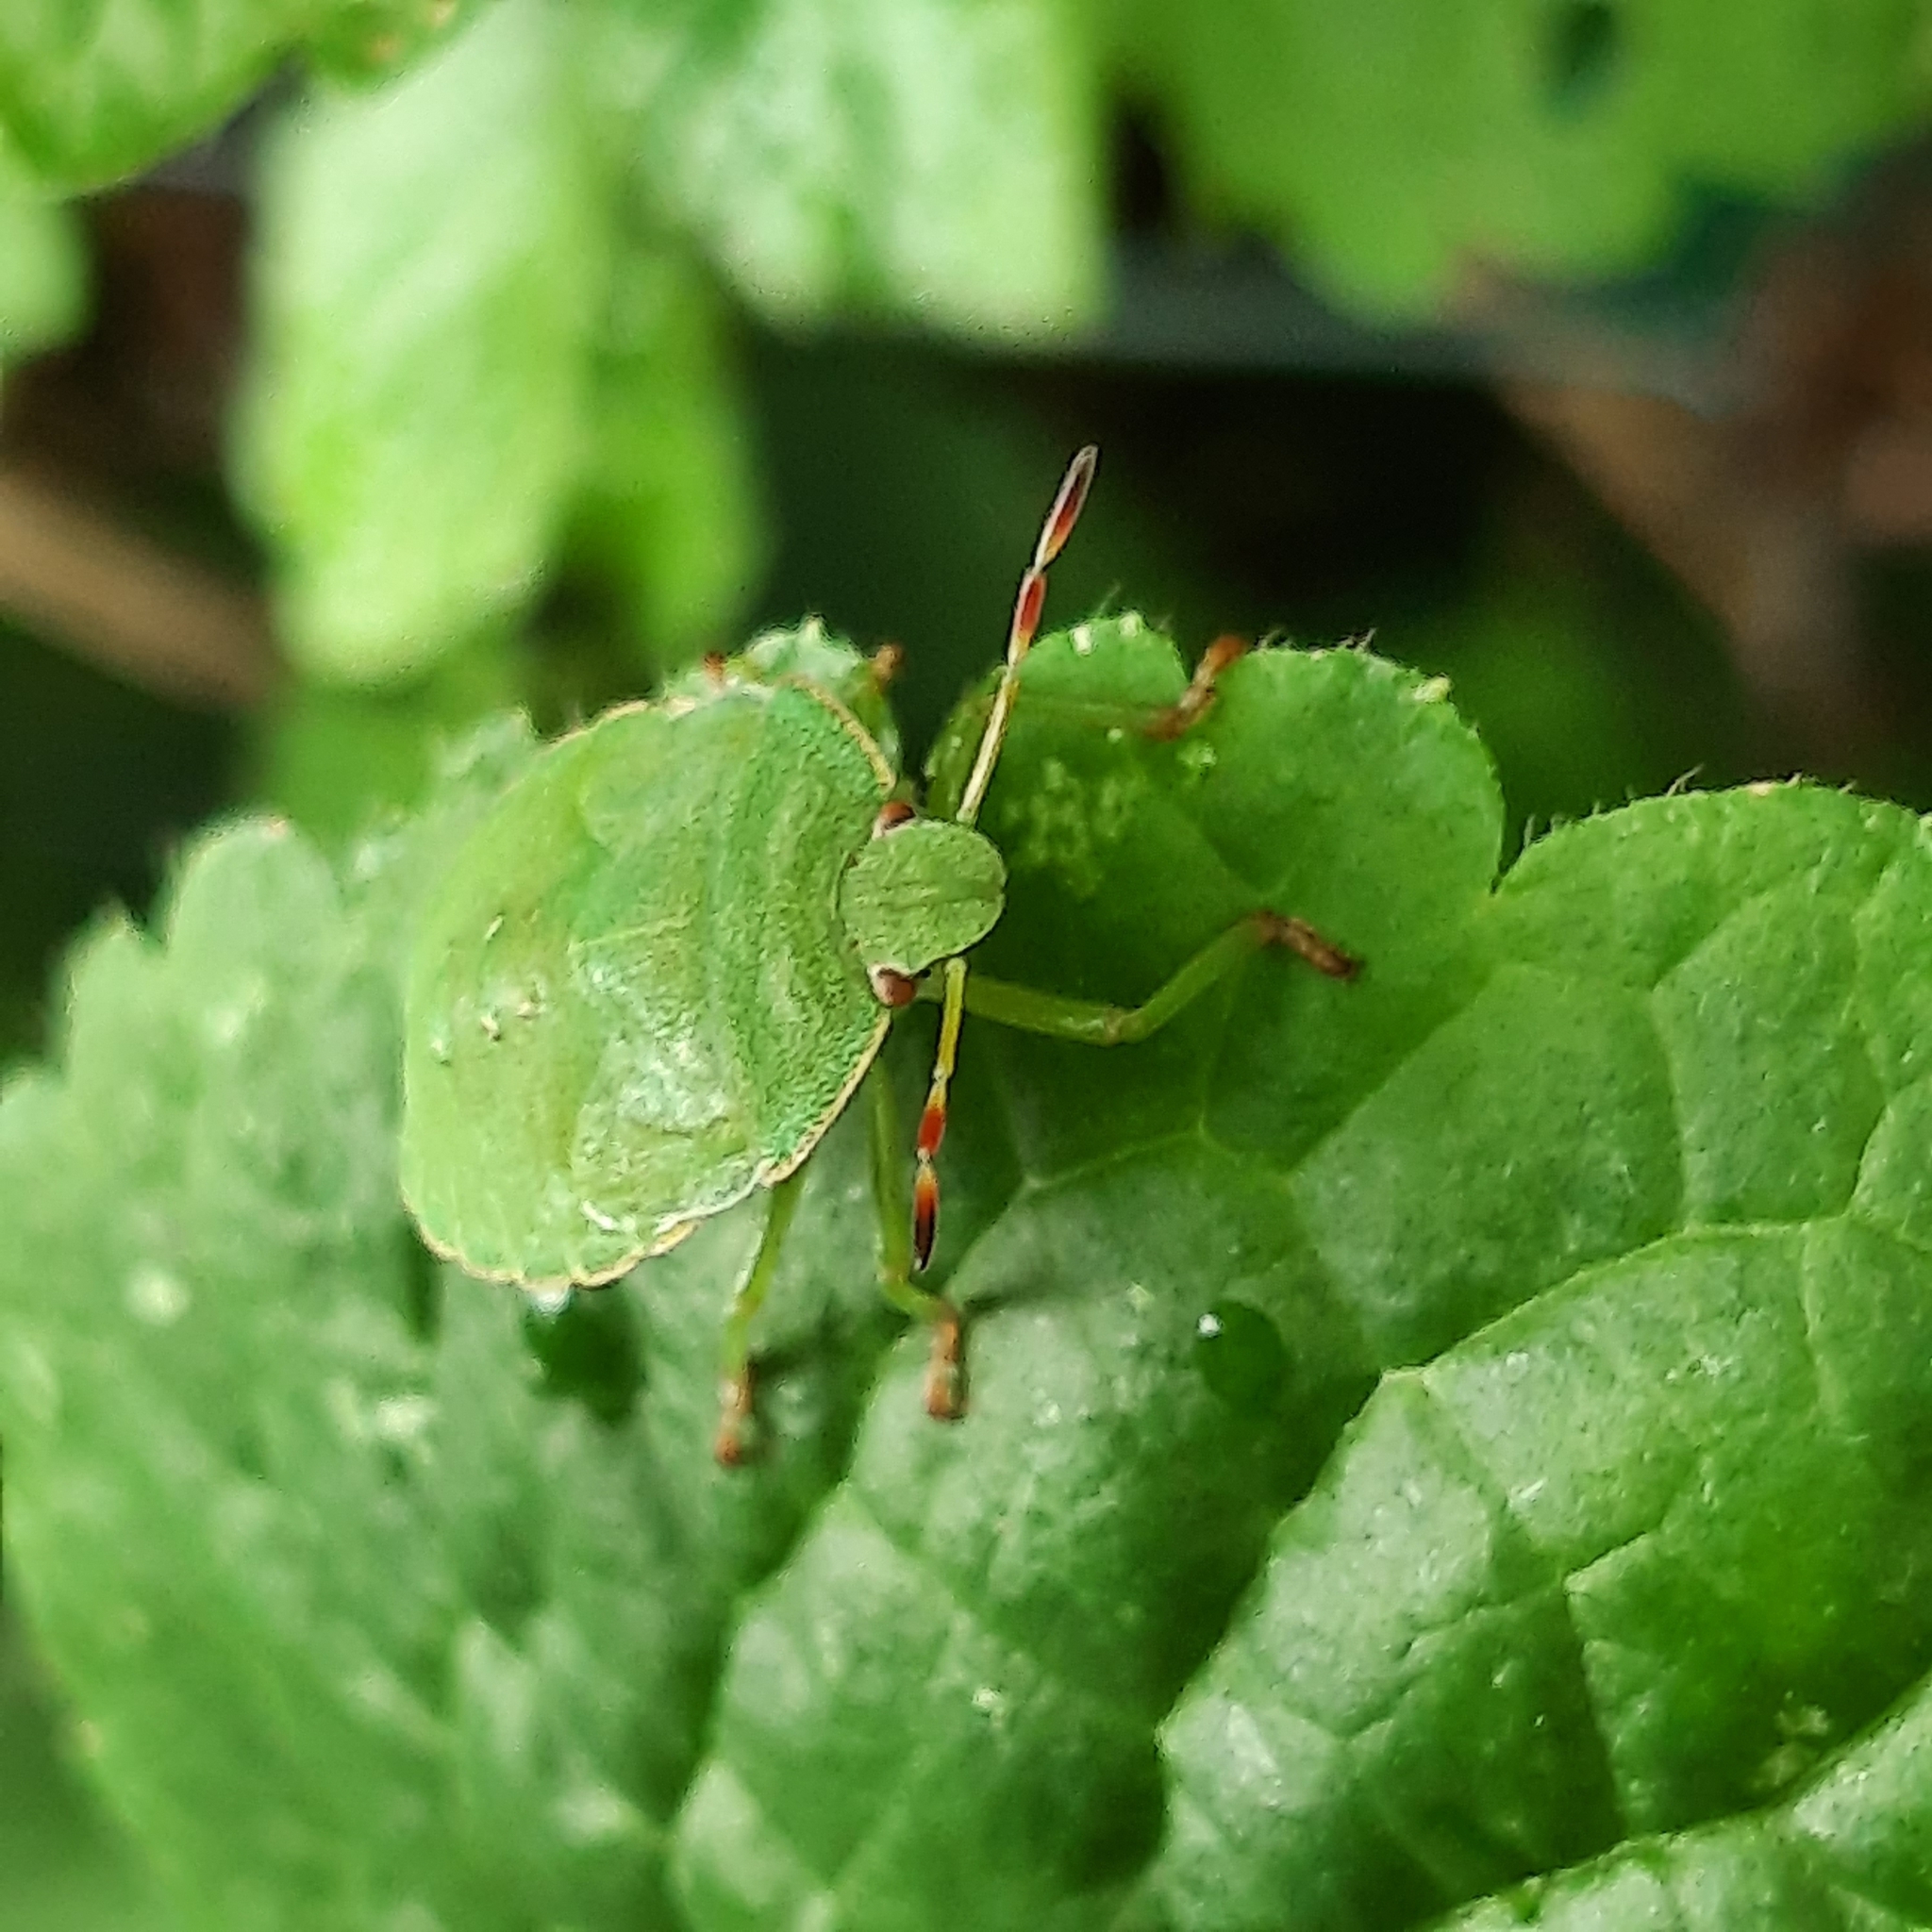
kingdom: Animalia
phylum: Arthropoda
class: Insecta
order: Hemiptera
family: Pentatomidae
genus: Palomena
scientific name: Palomena prasina
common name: Green shieldbug
